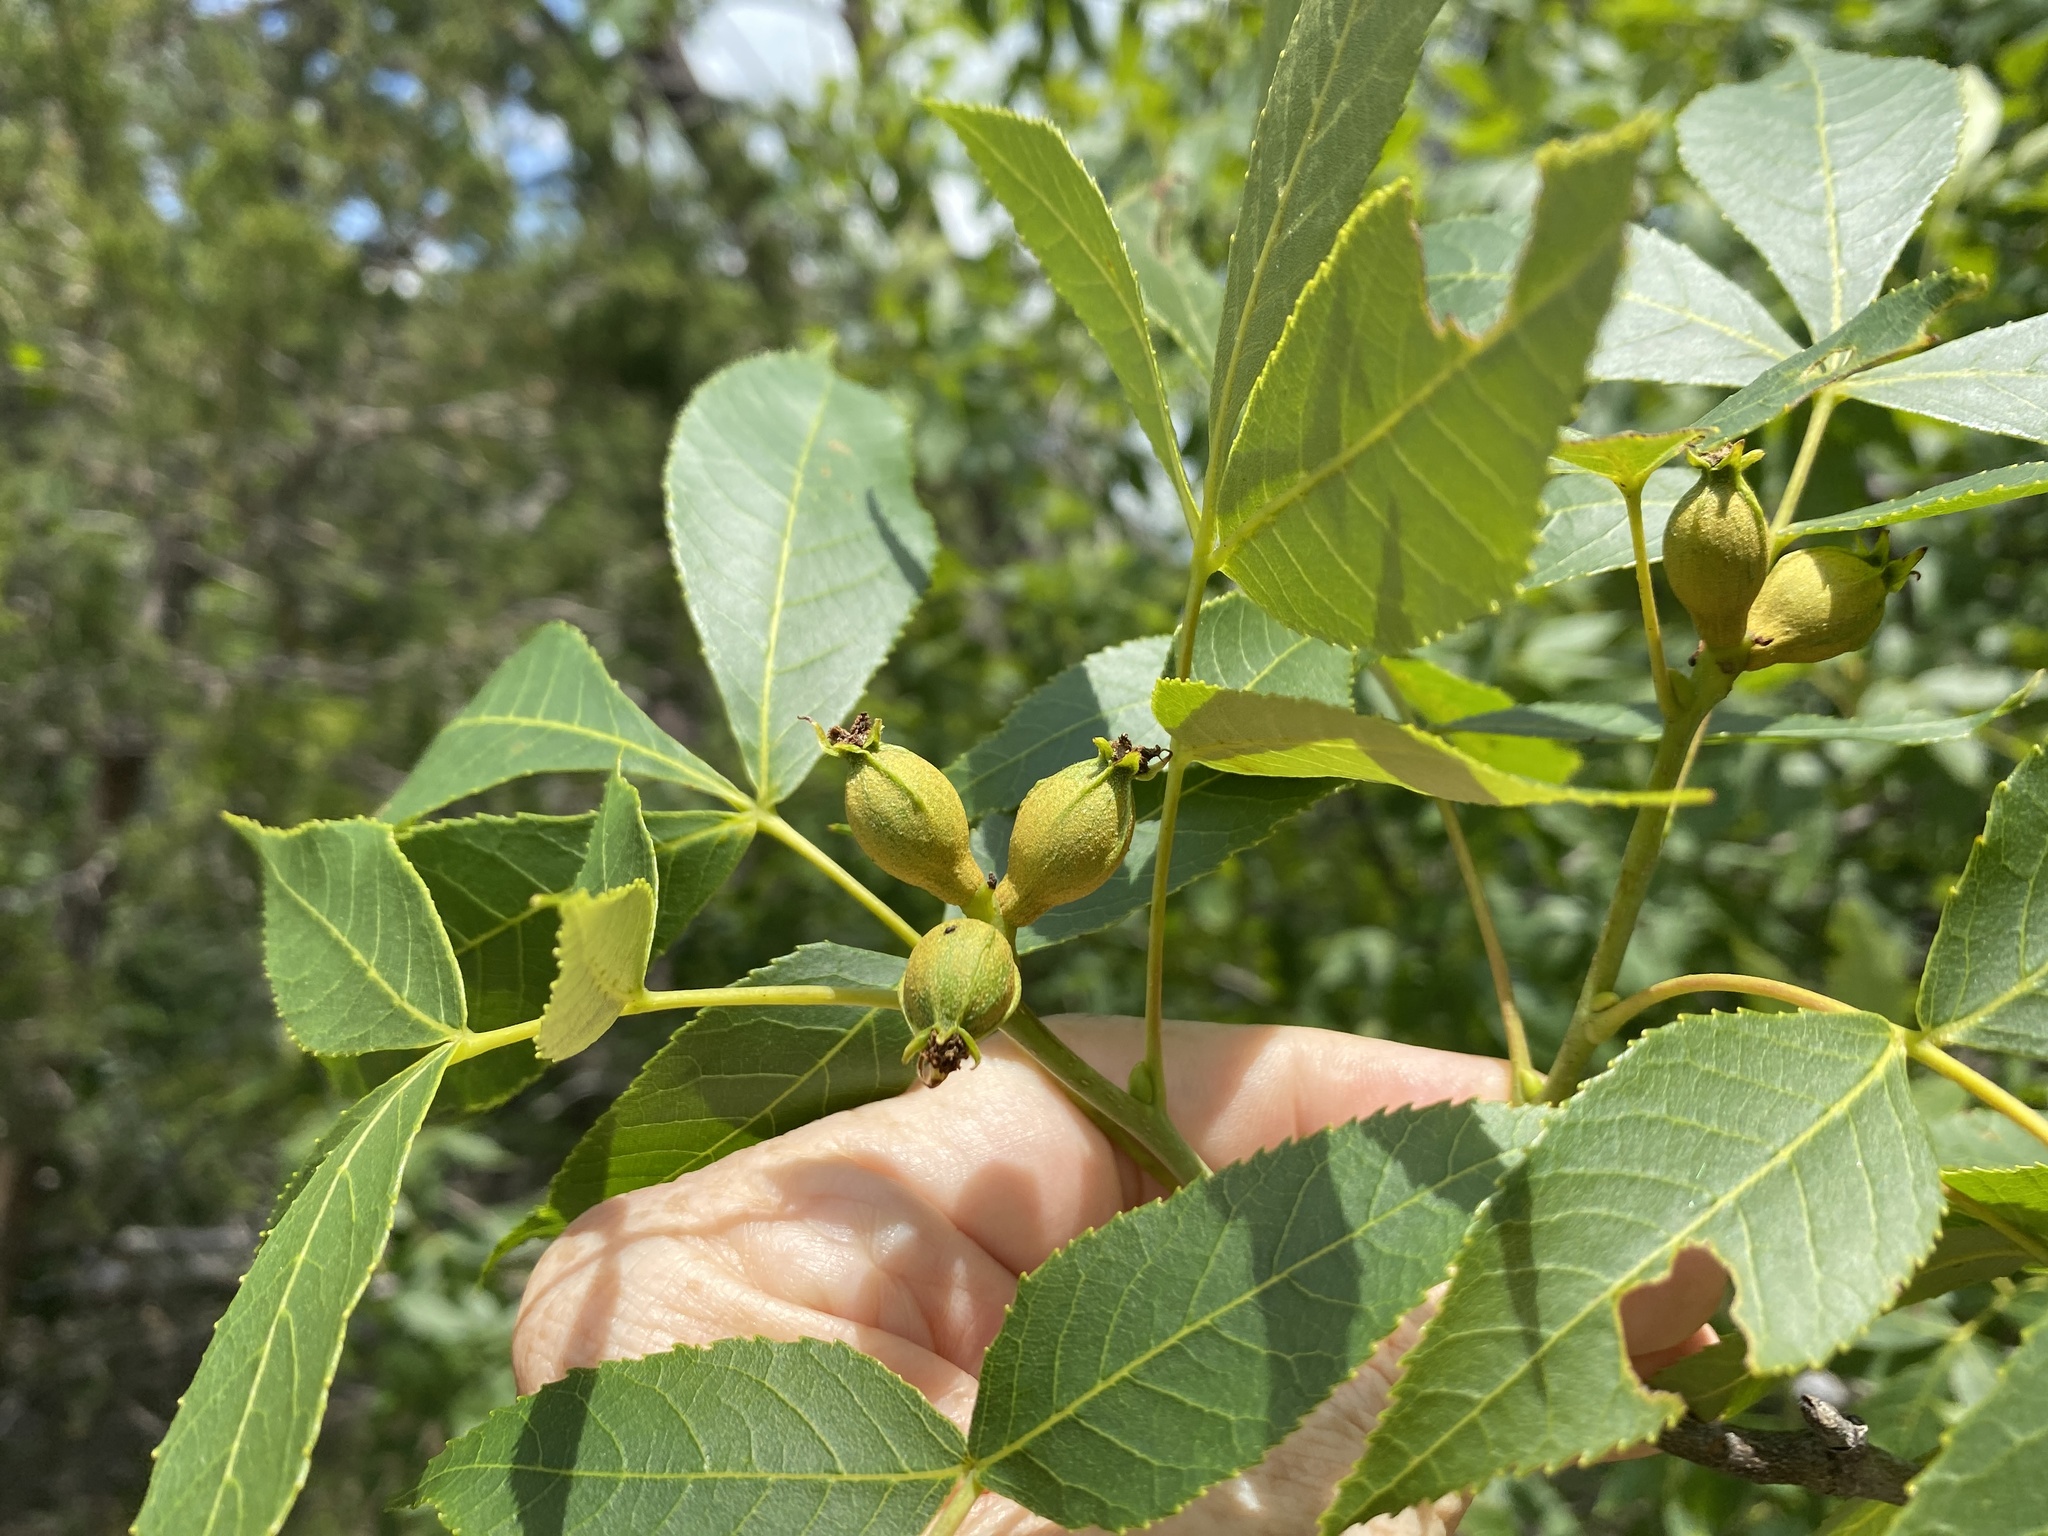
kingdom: Plantae
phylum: Tracheophyta
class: Magnoliopsida
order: Fagales
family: Juglandaceae
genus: Carya
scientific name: Carya glabra
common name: Pignut hickory
